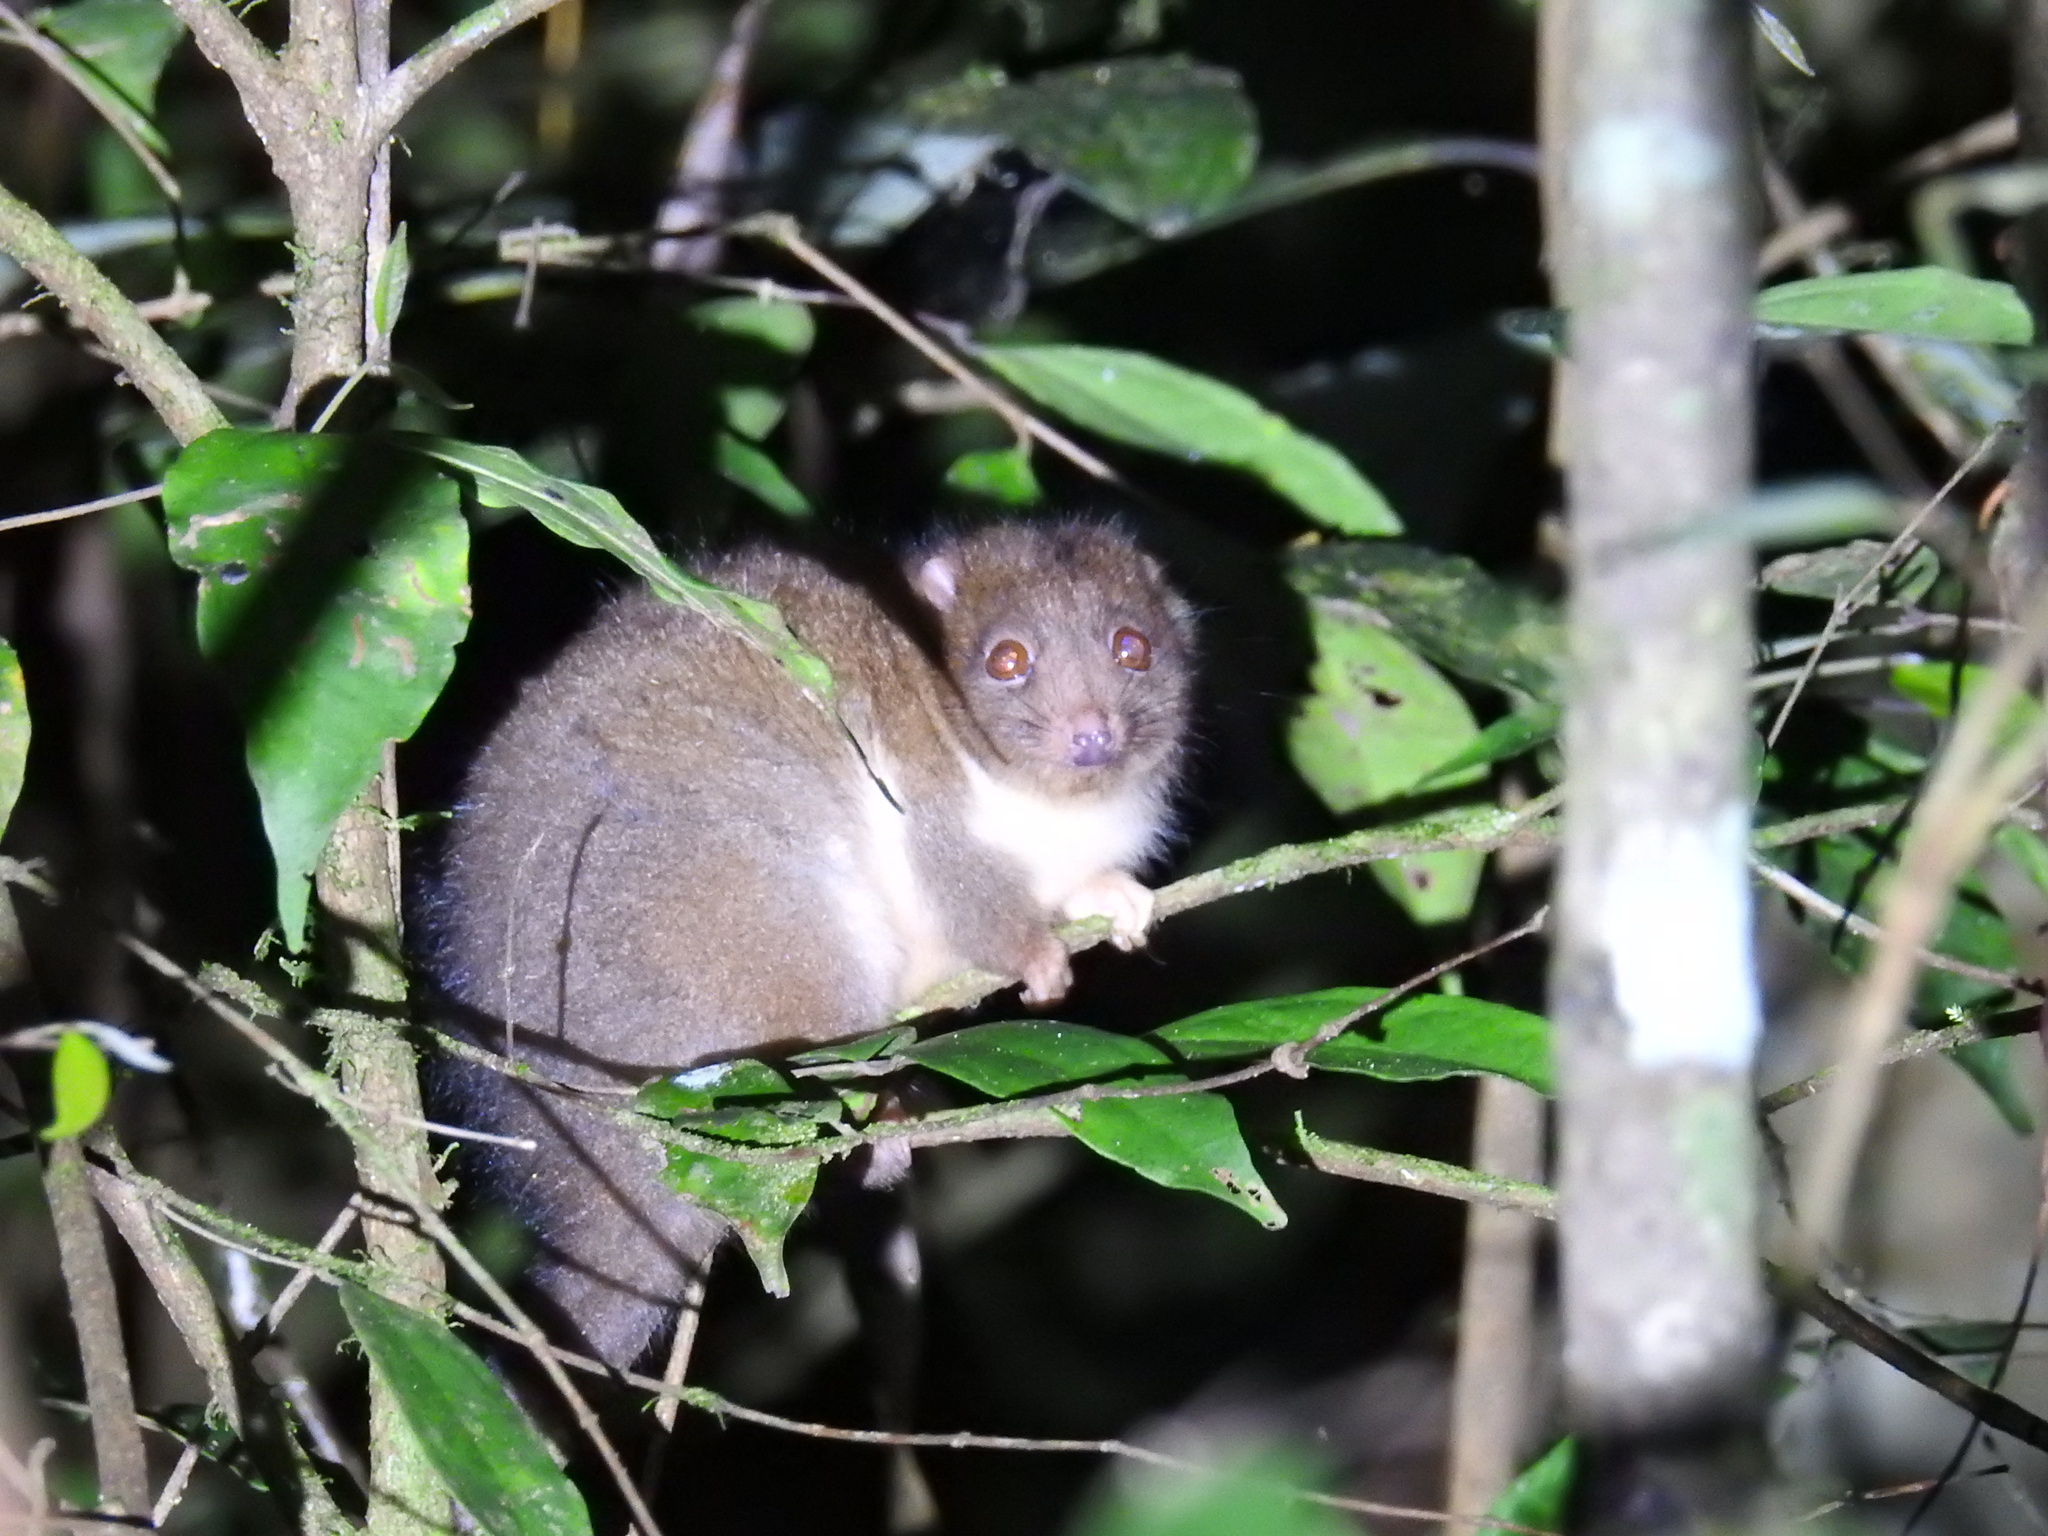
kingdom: Animalia
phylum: Chordata
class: Mammalia
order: Diprotodontia
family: Pseudocheiridae
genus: Pseudochirulus
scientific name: Pseudochirulus herbertensis
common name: Herbert river ringtail
